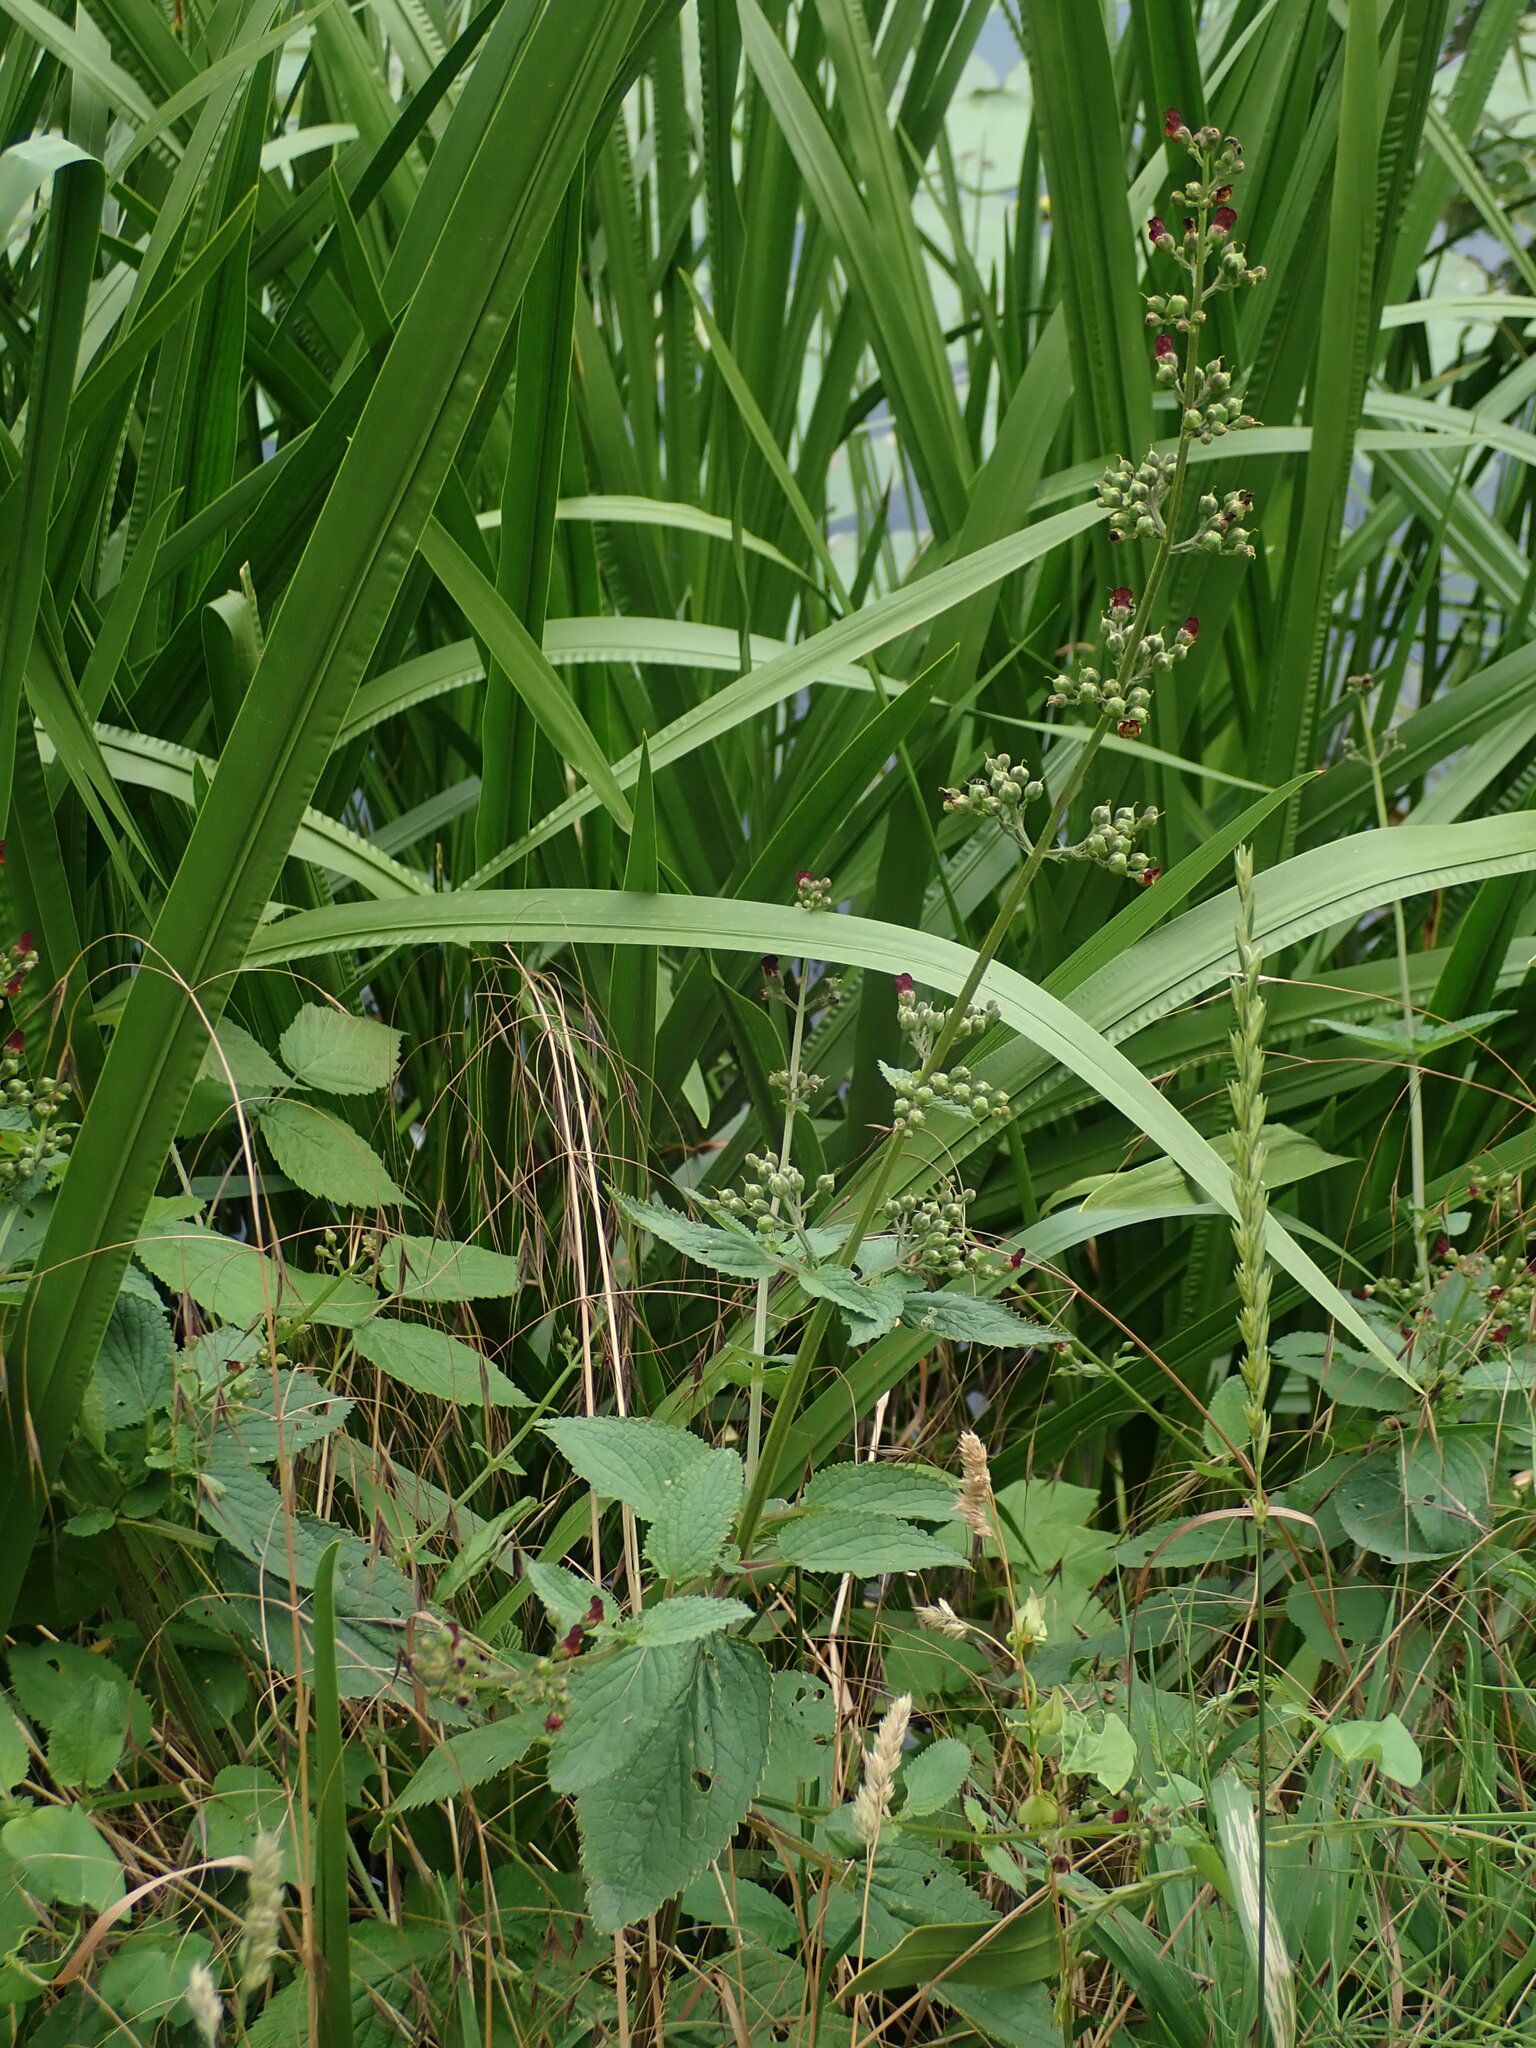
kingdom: Plantae
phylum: Tracheophyta
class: Magnoliopsida
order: Lamiales
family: Scrophulariaceae
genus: Scrophularia
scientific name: Scrophularia auriculata
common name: Water betony
